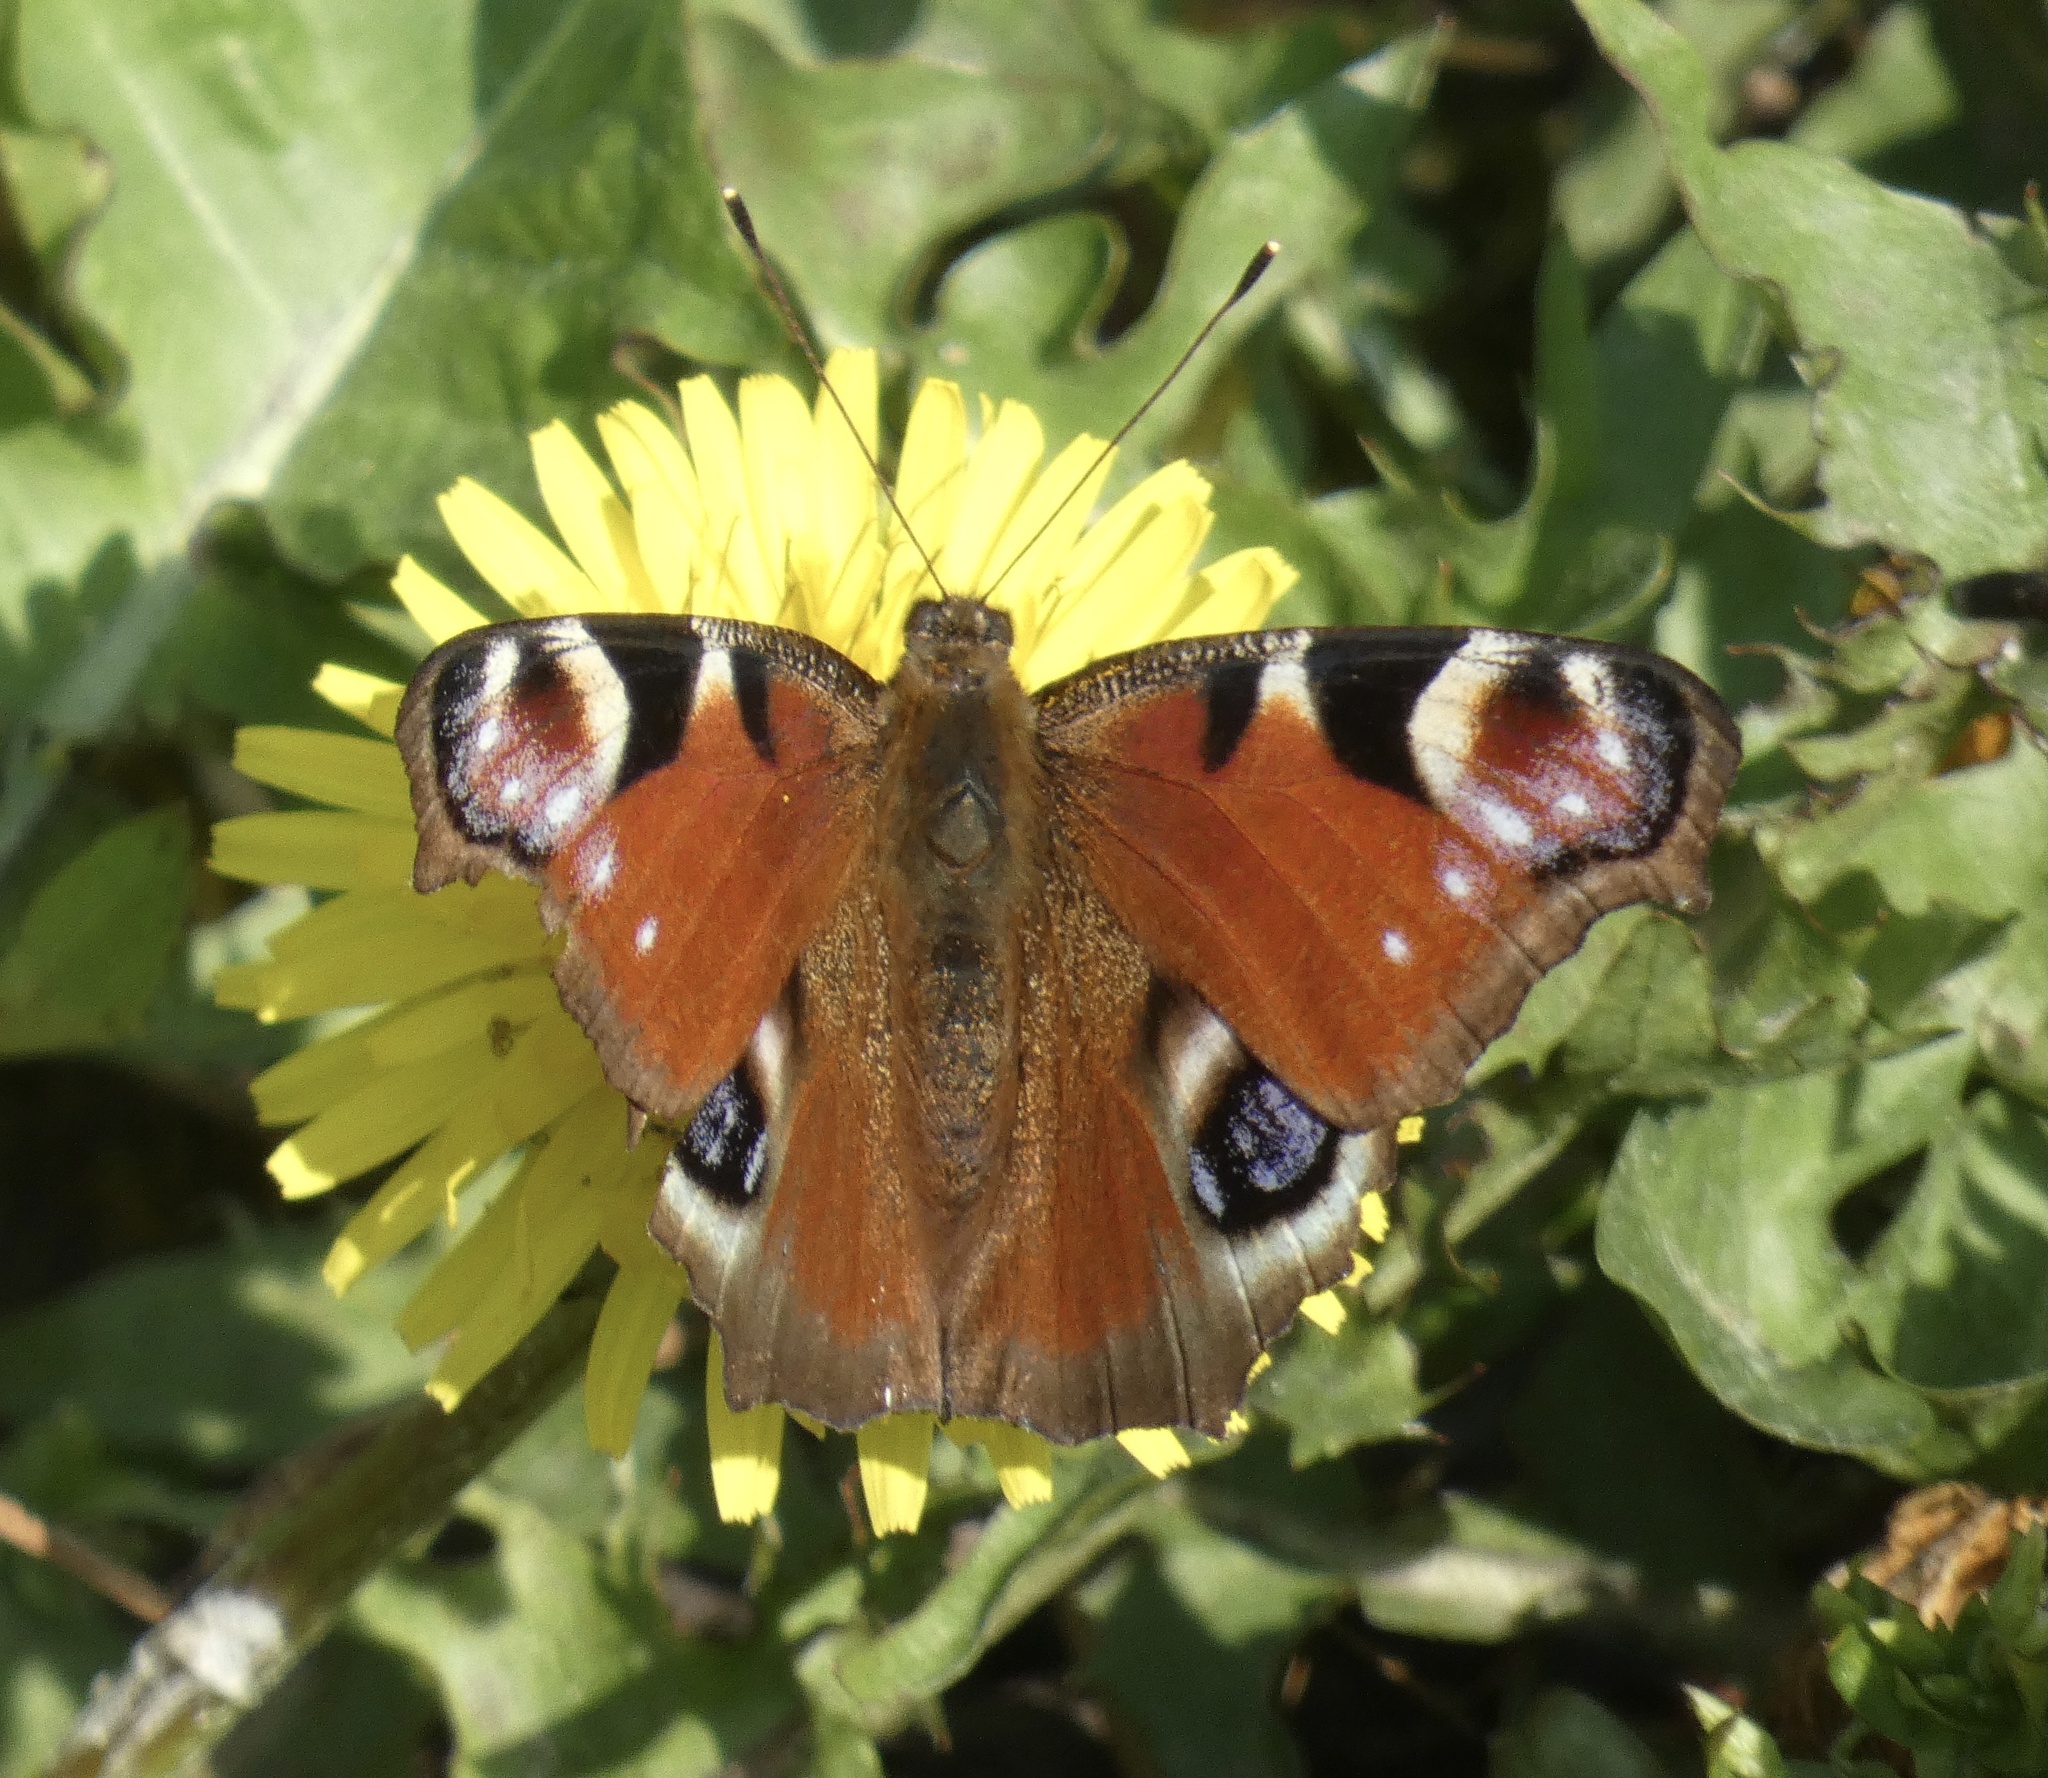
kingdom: Animalia
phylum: Arthropoda
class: Insecta
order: Lepidoptera
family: Nymphalidae
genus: Aglais
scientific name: Aglais io
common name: Peacock
